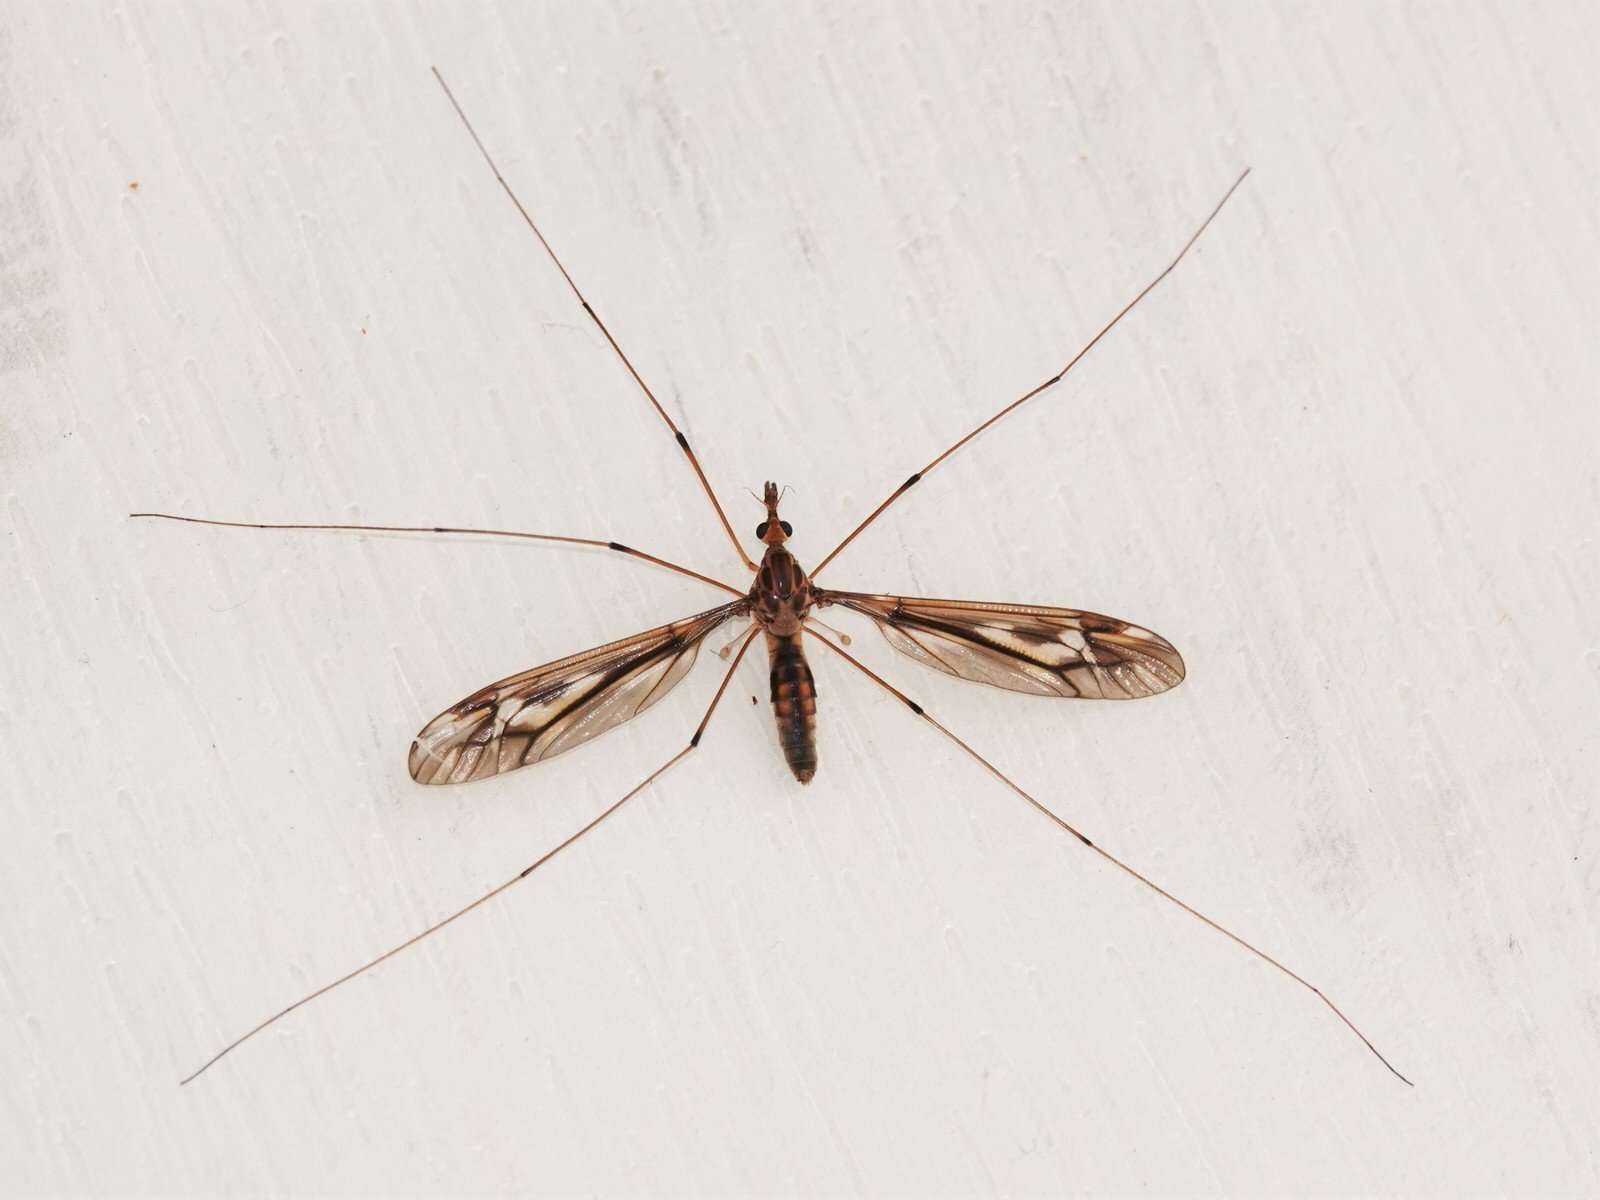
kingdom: Animalia
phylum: Arthropoda
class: Insecta
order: Diptera
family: Tipulidae
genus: Leptotarsus
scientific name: Leptotarsus huttoni
